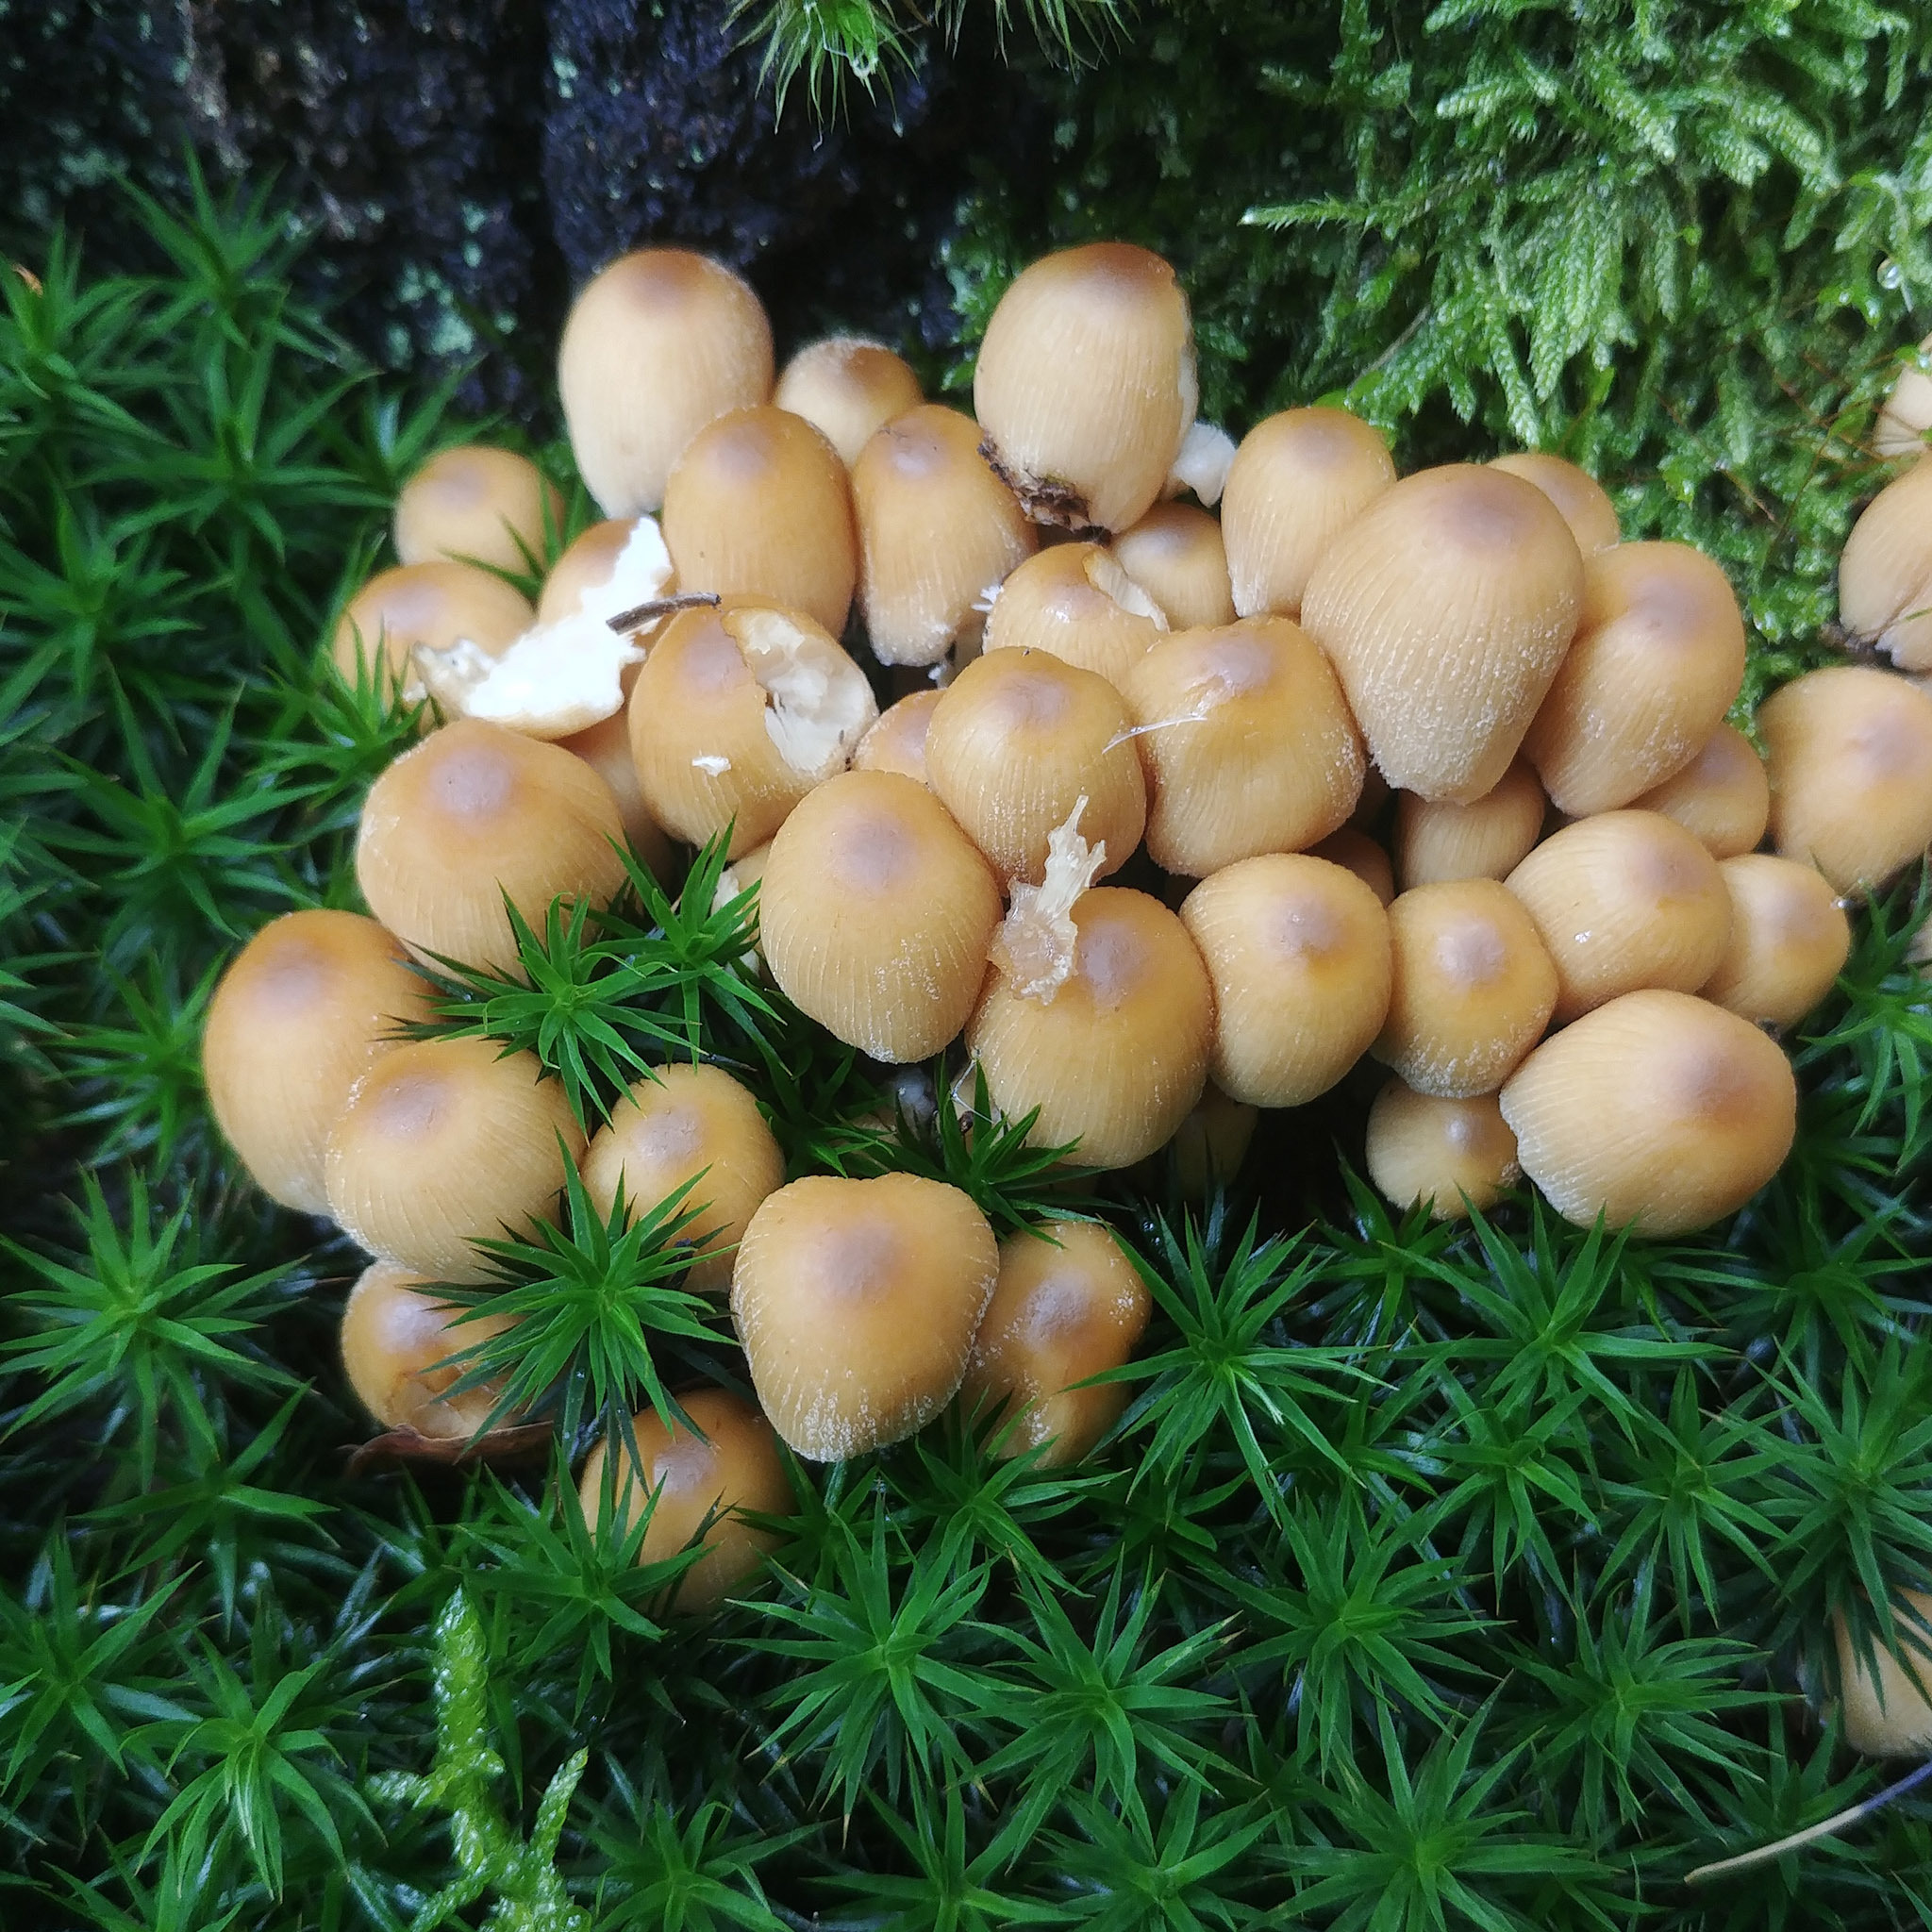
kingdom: Fungi
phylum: Basidiomycota
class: Agaricomycetes
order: Agaricales
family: Psathyrellaceae
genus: Coprinellus
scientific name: Coprinellus micaceus
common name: Glistening ink-cap
